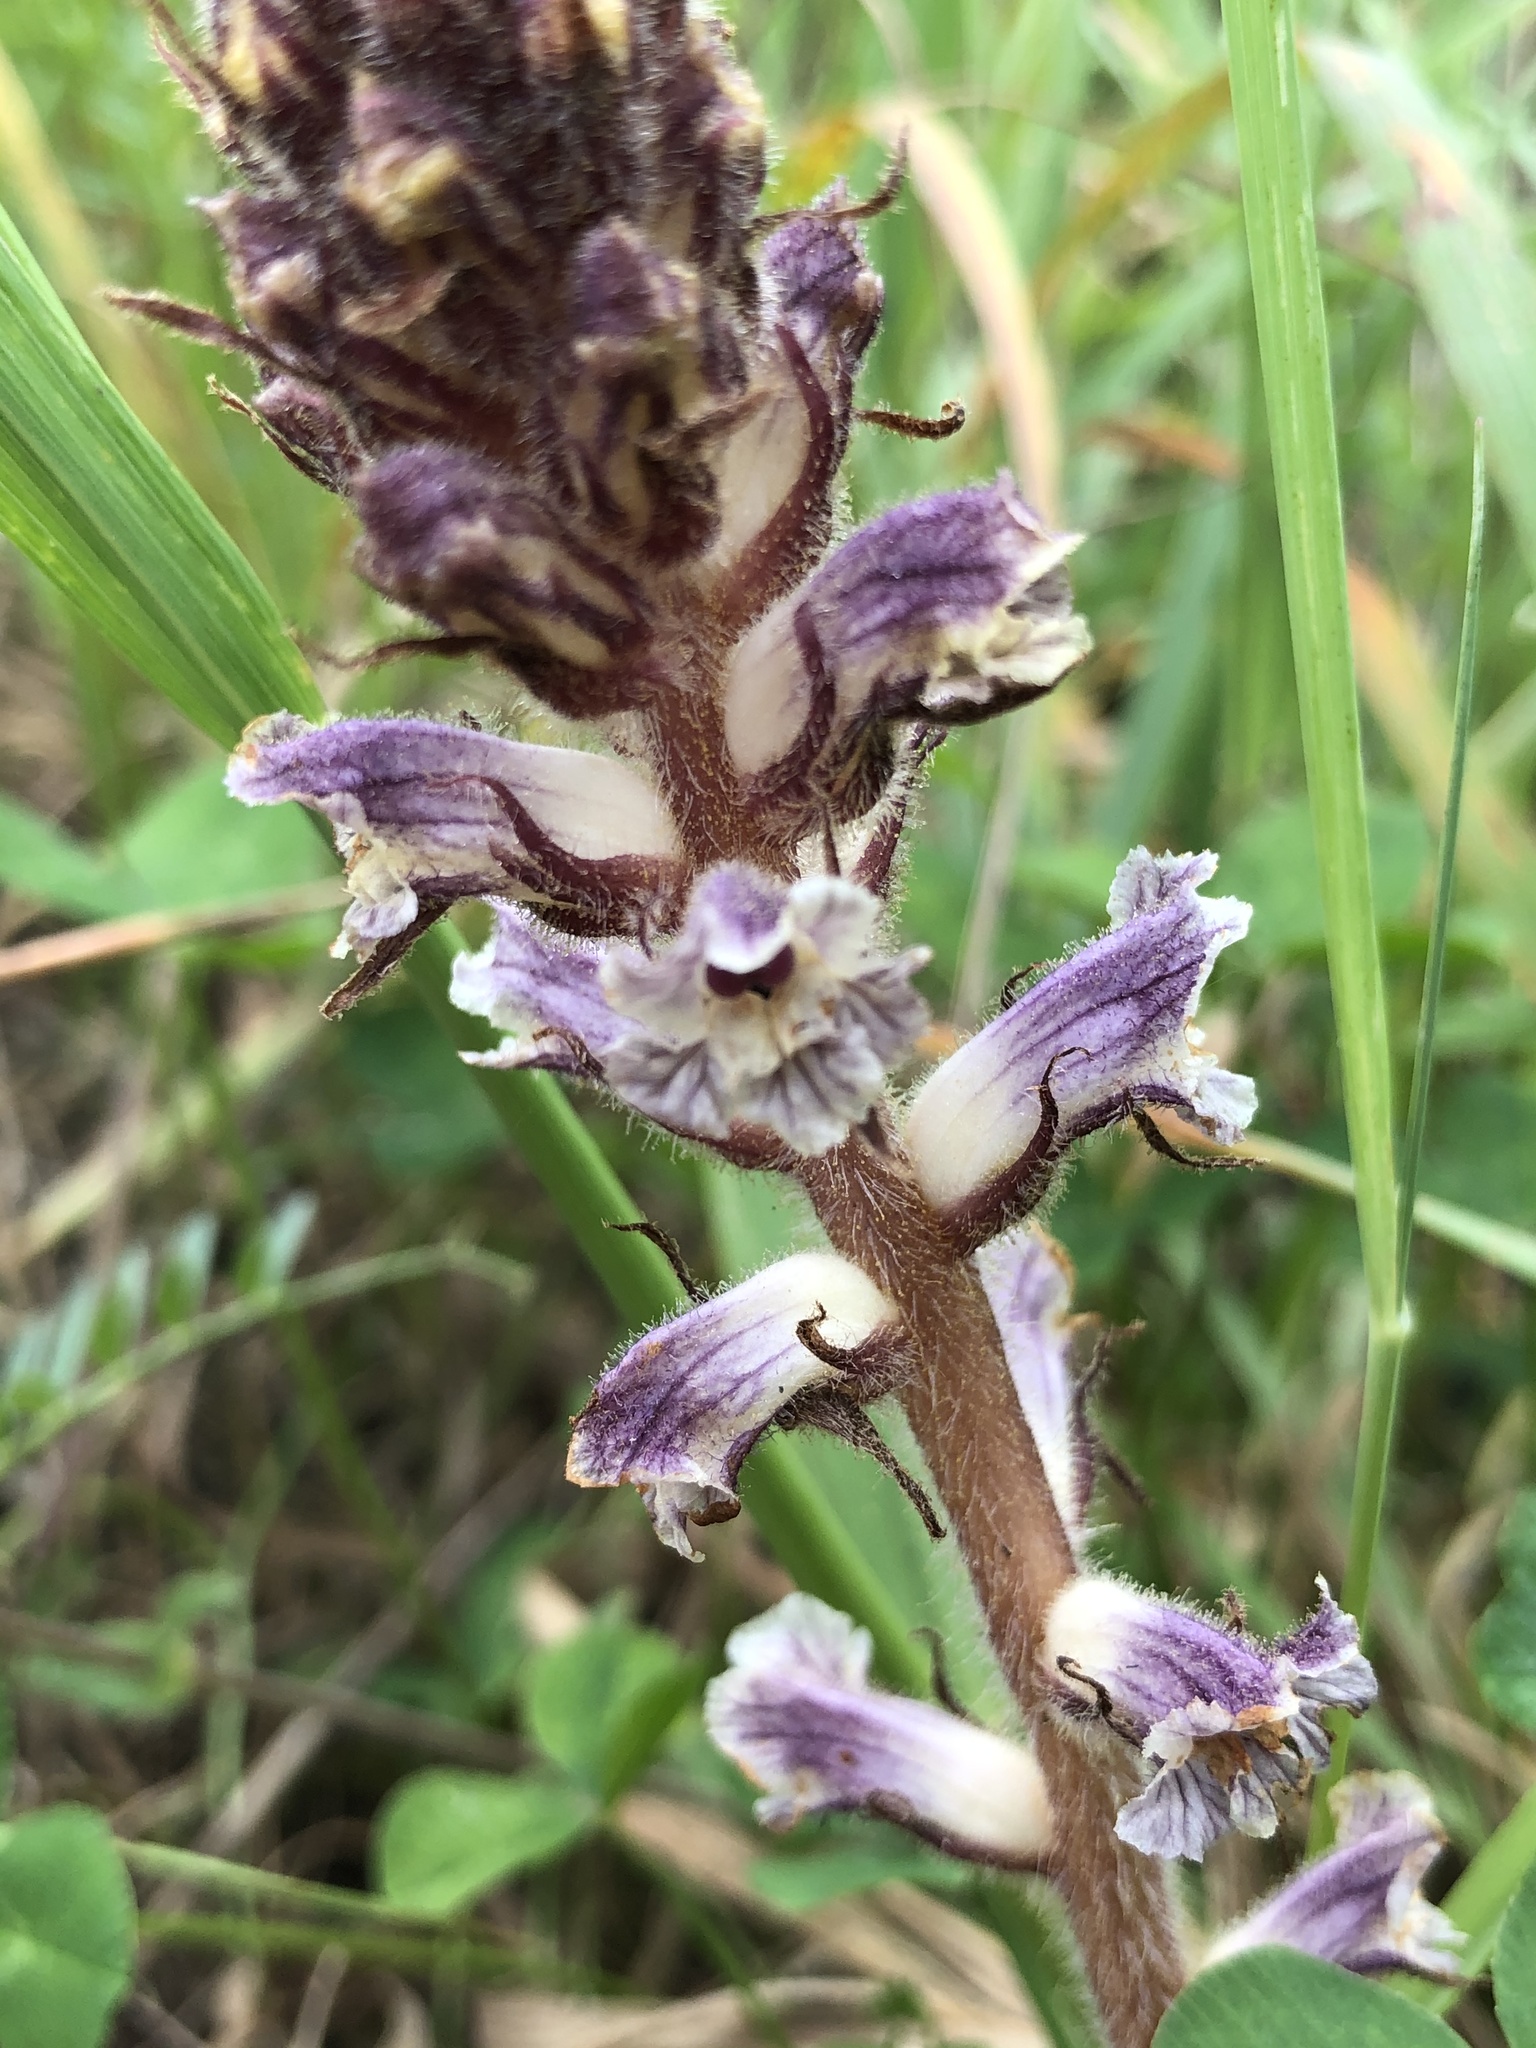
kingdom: Plantae
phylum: Tracheophyta
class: Magnoliopsida
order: Lamiales
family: Orobanchaceae
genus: Orobanche
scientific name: Orobanche minor
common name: Common broomrape
